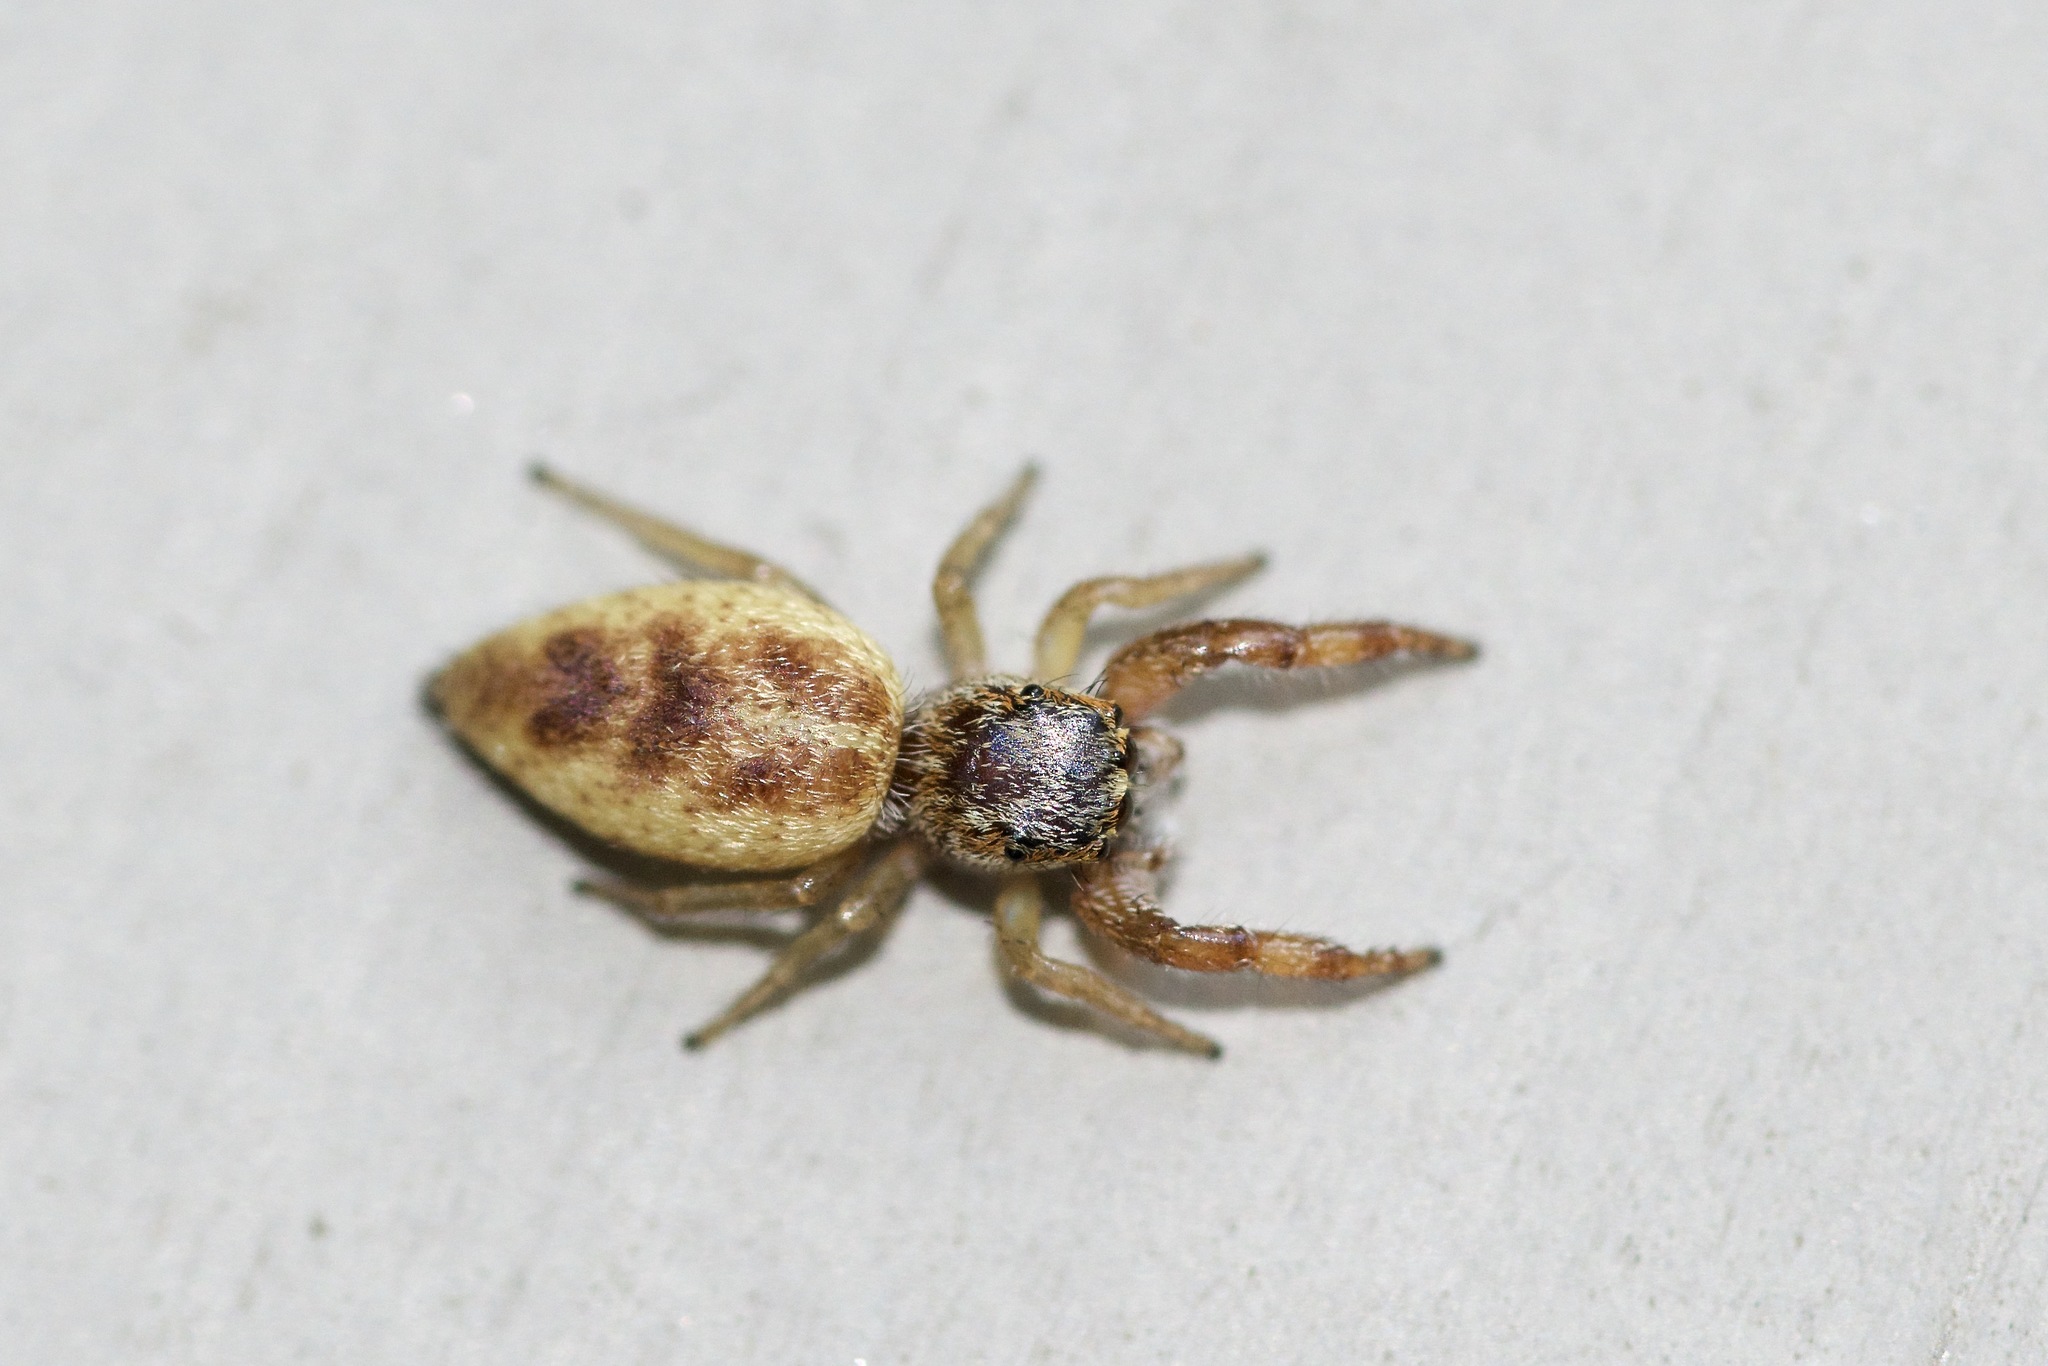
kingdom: Animalia
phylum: Arthropoda
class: Arachnida
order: Araneae
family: Salticidae
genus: Hentzia
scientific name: Hentzia palmarum
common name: Common hentz jumping spider
